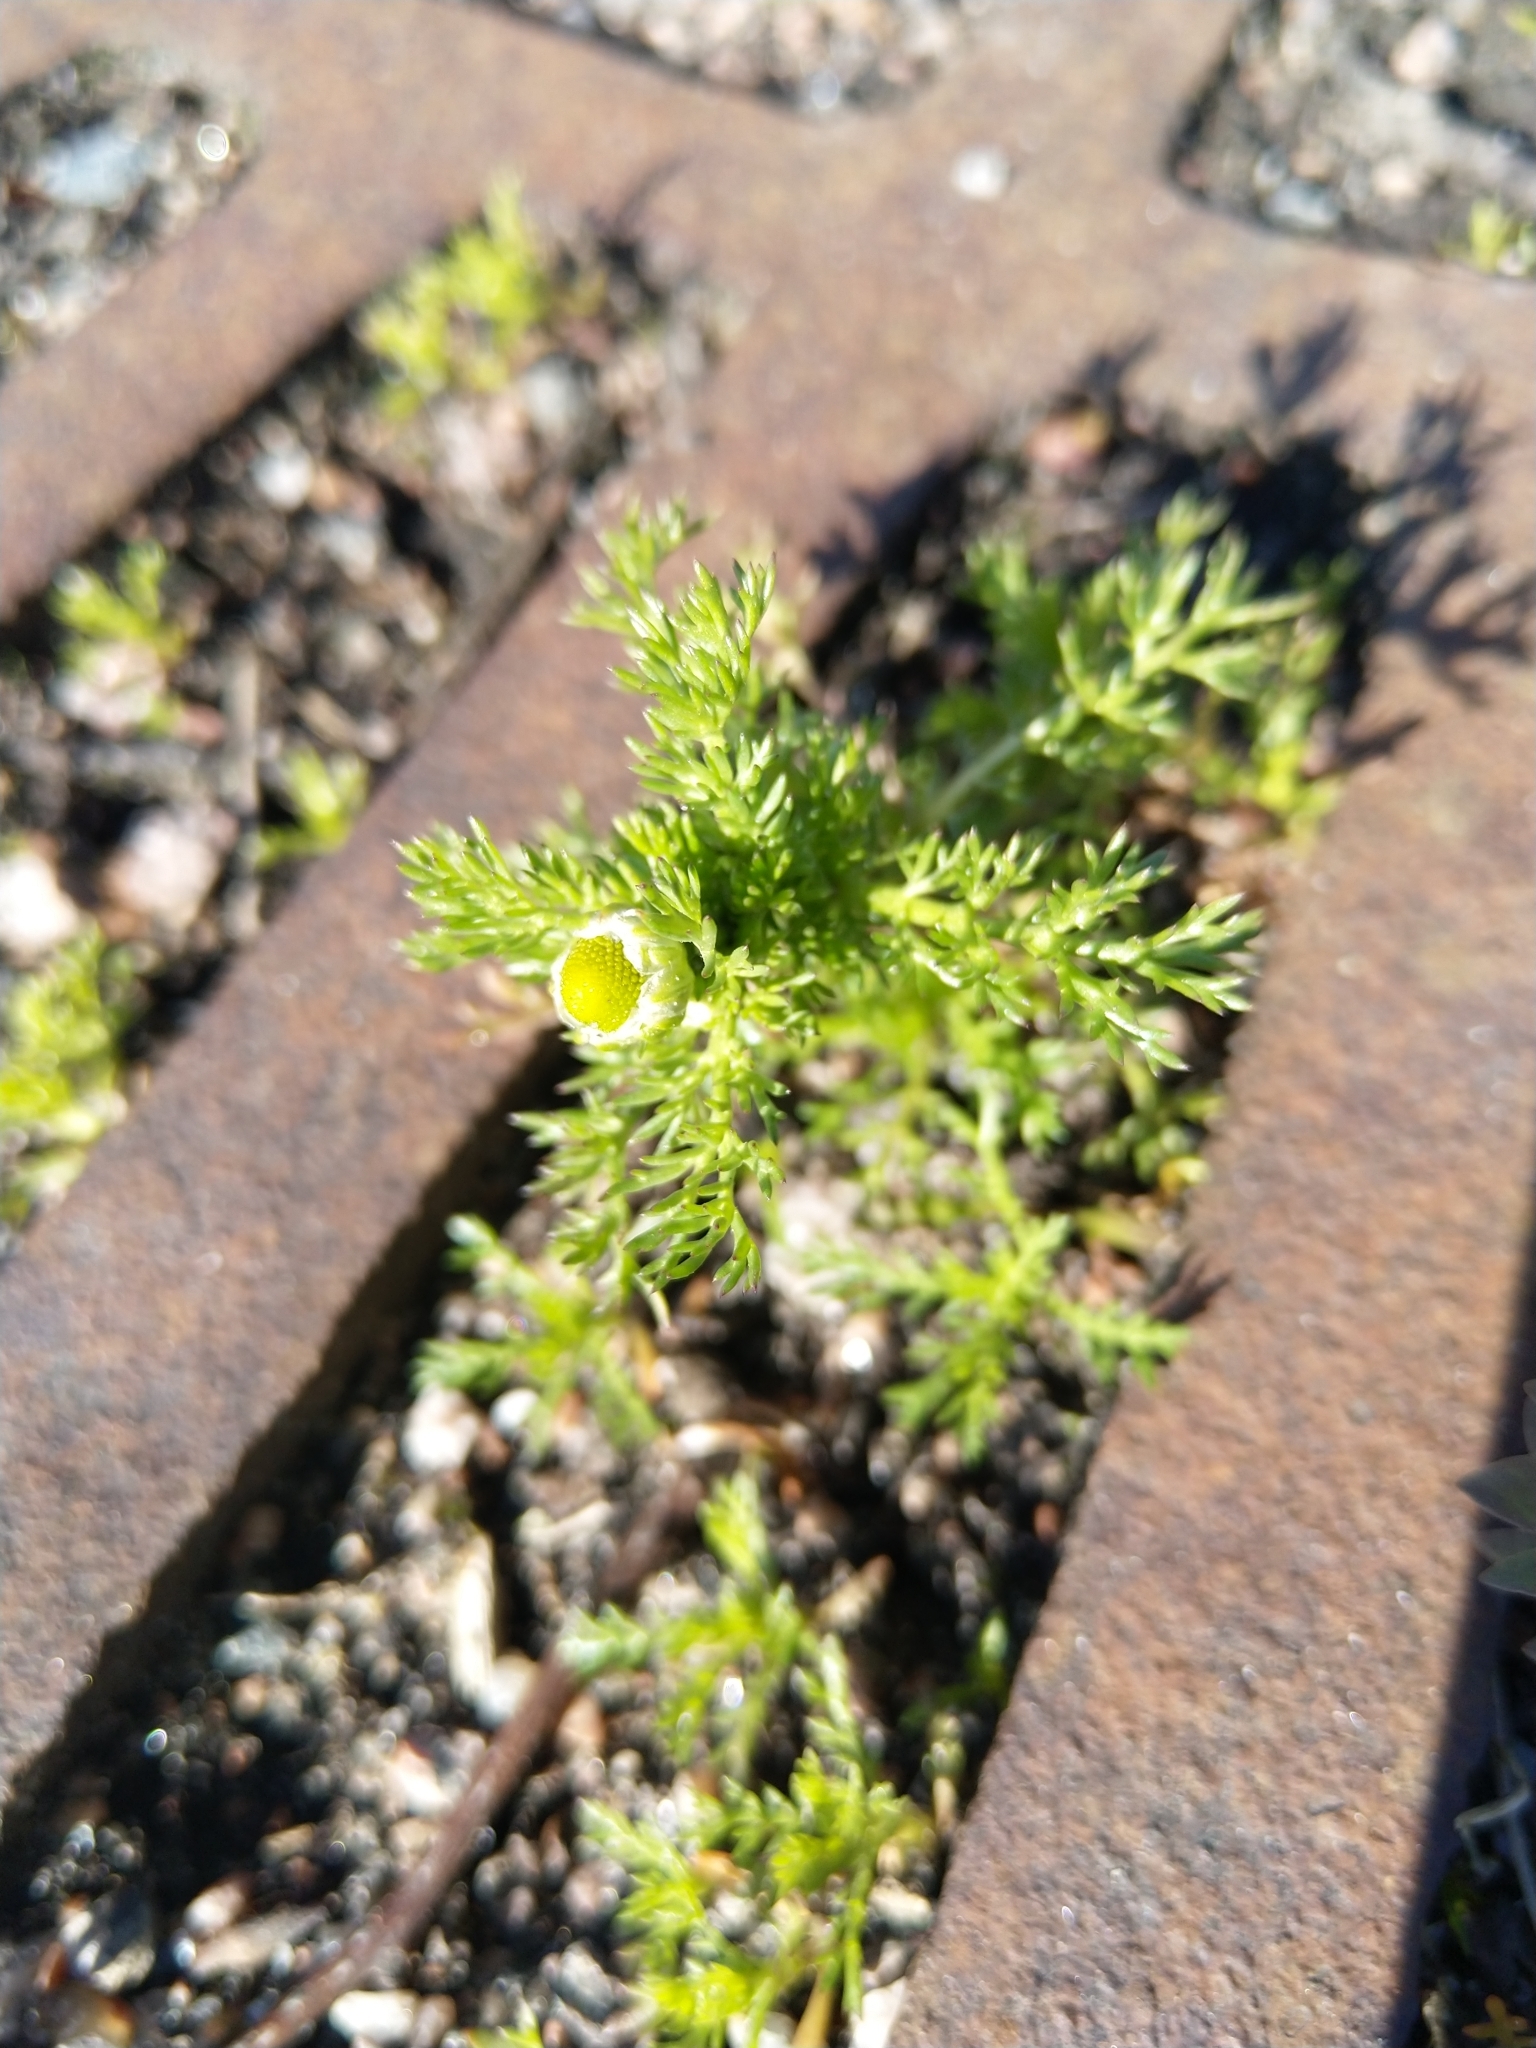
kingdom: Plantae
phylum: Tracheophyta
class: Magnoliopsida
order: Asterales
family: Asteraceae
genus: Matricaria
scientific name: Matricaria discoidea
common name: Disc mayweed
